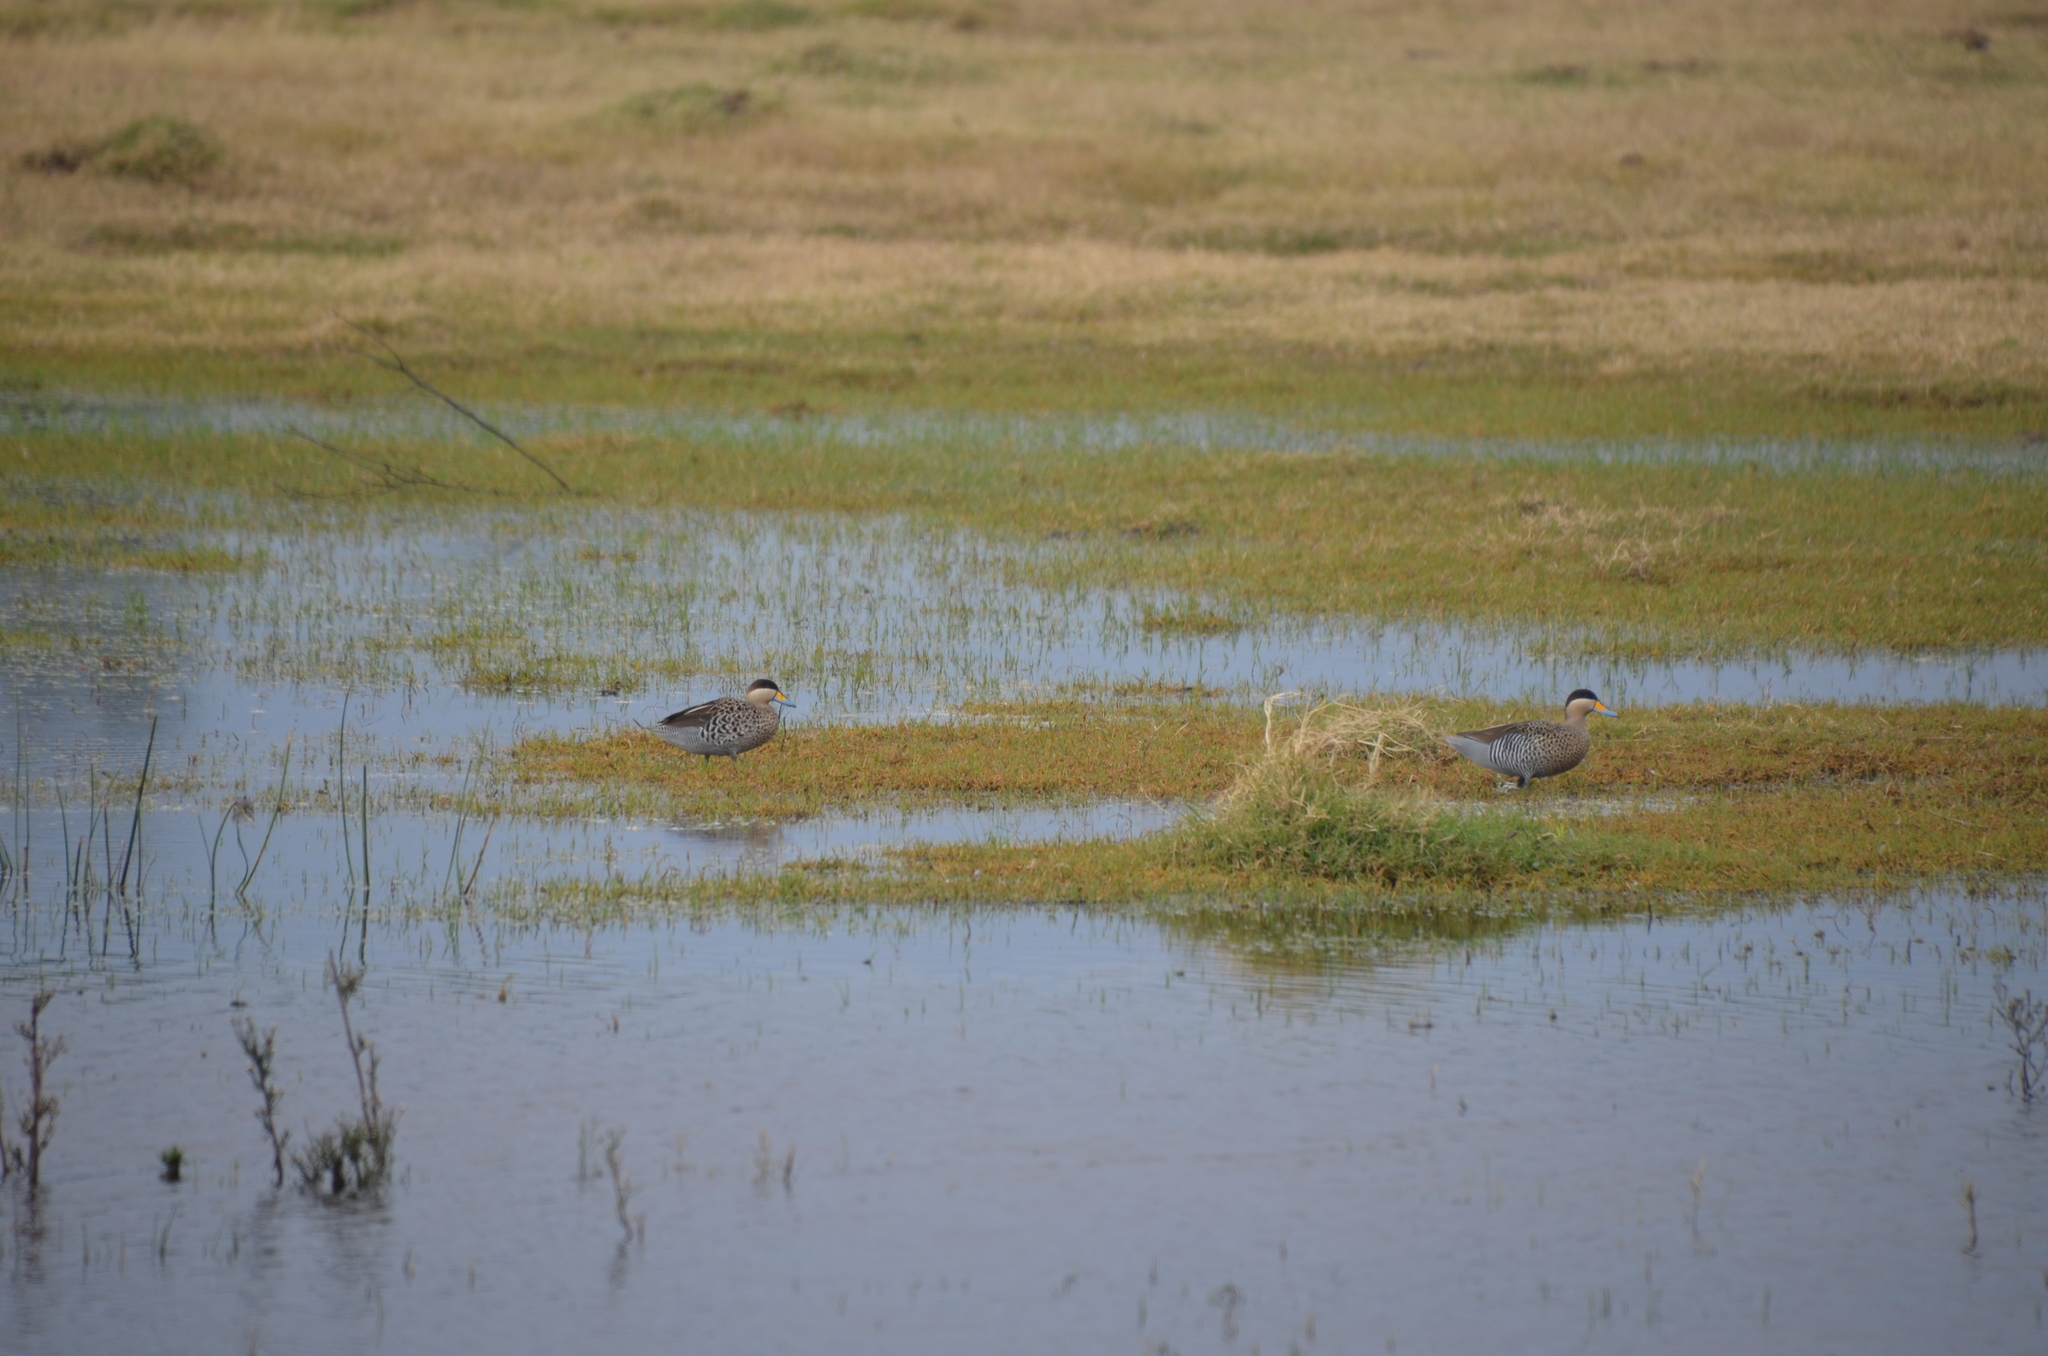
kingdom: Animalia
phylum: Chordata
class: Aves
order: Anseriformes
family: Anatidae
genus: Spatula
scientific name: Spatula versicolor
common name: Silver teal
